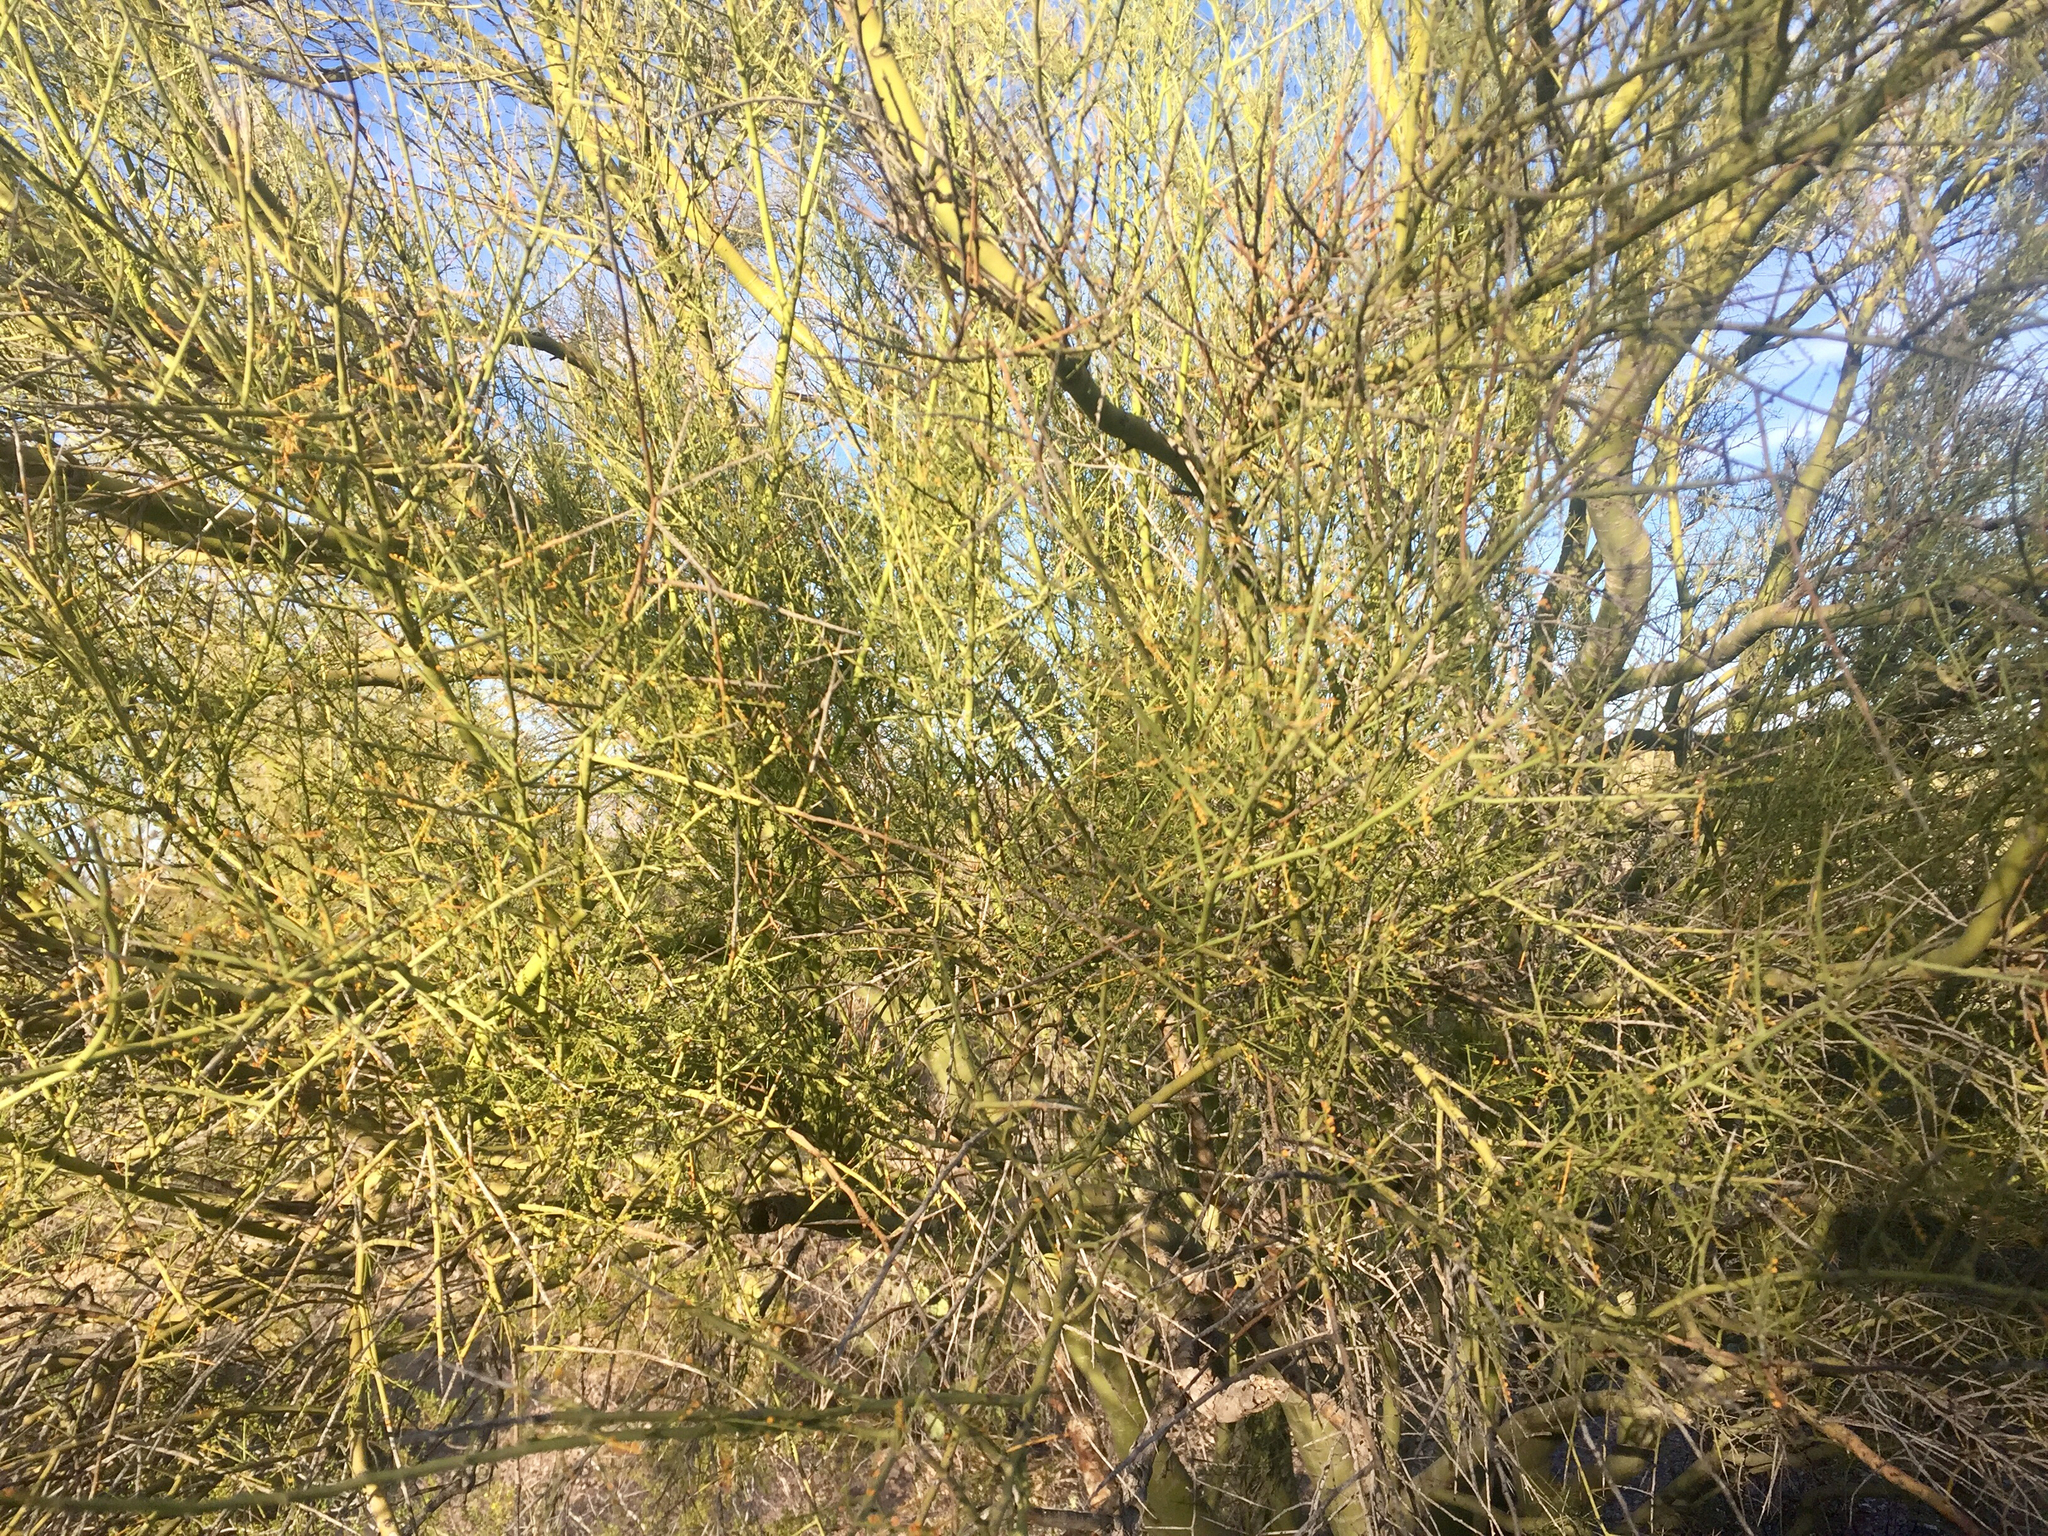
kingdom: Plantae
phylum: Tracheophyta
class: Magnoliopsida
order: Fabales
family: Fabaceae
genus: Parkinsonia
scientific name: Parkinsonia microphylla
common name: Yellow paloverde
